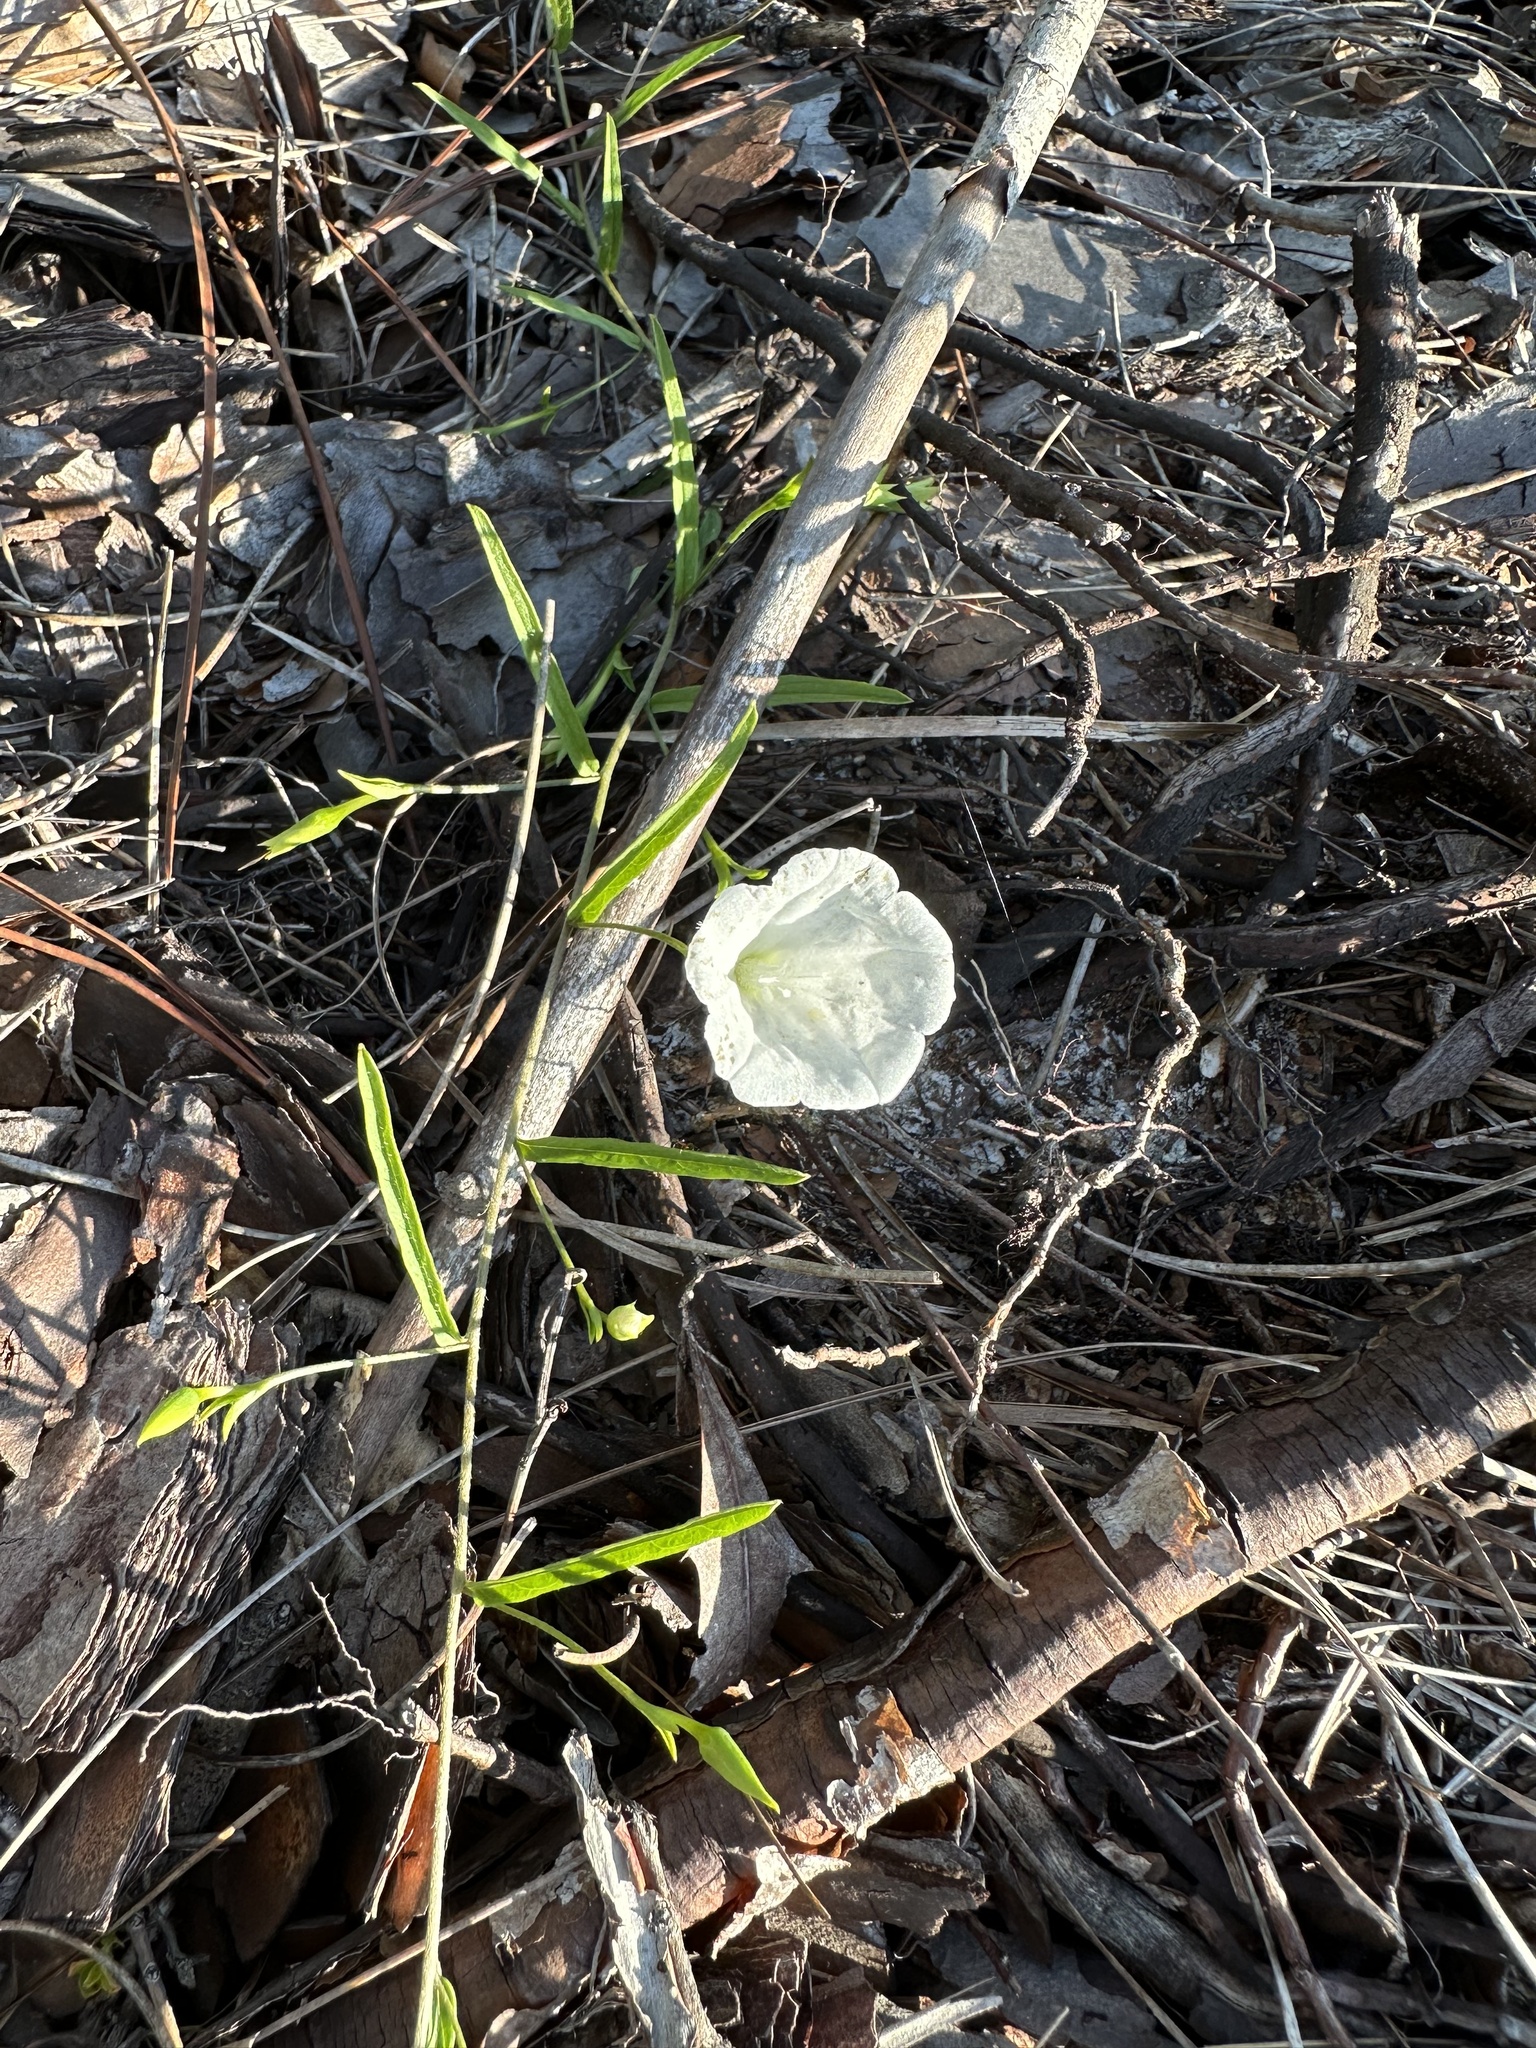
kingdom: Plantae
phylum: Tracheophyta
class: Magnoliopsida
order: Solanales
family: Convolvulaceae
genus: Stylisma
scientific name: Stylisma patens
